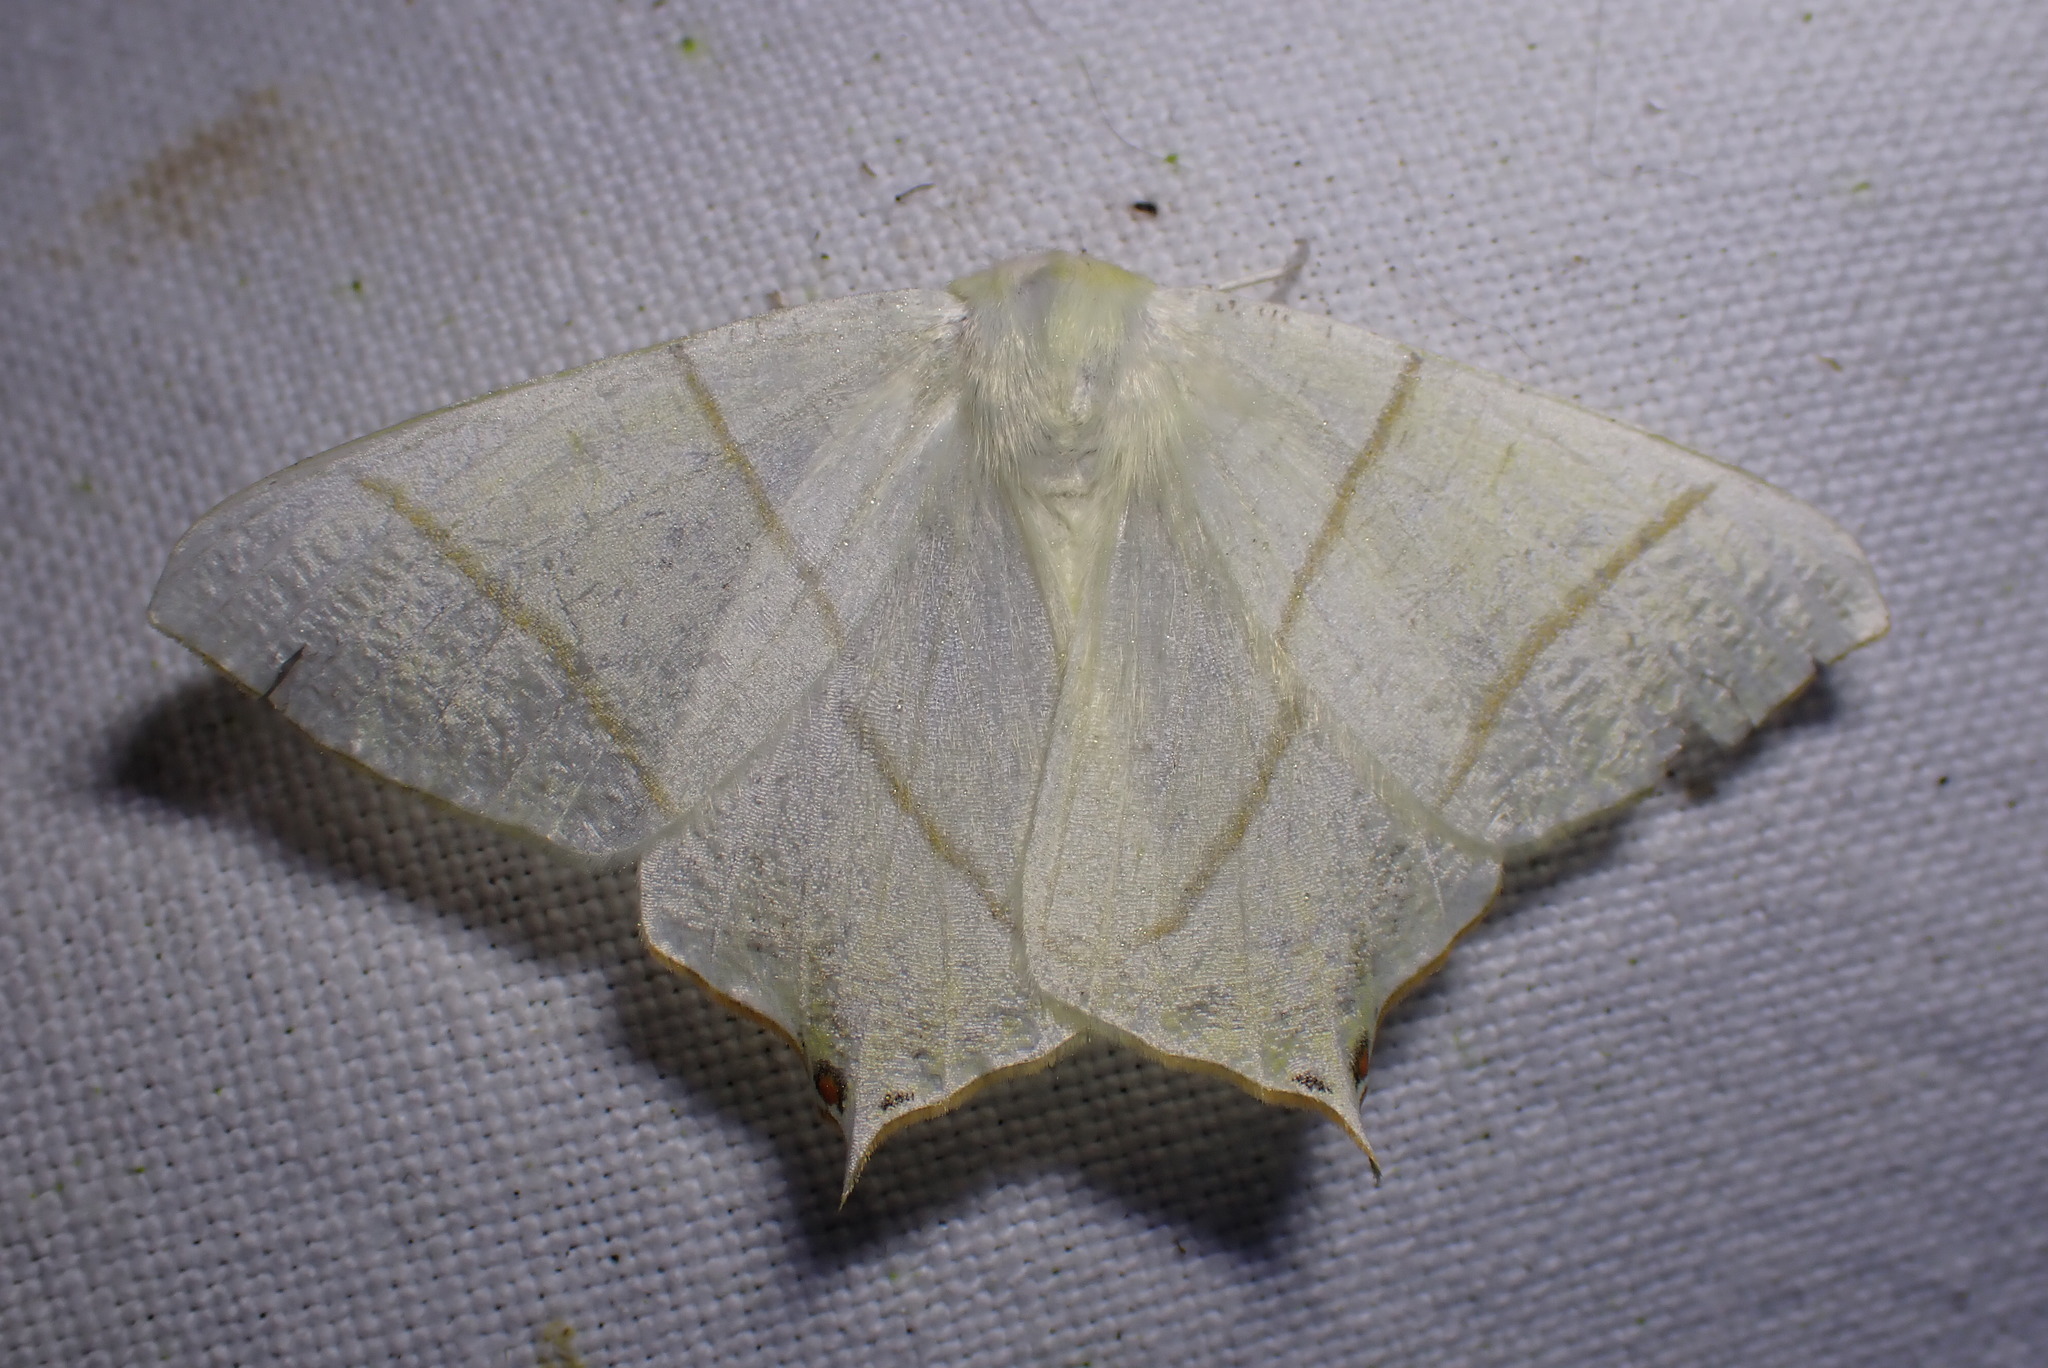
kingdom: Animalia
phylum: Arthropoda
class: Insecta
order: Lepidoptera
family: Geometridae
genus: Ourapteryx
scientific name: Ourapteryx sambucaria
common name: Swallow-tailed moth
